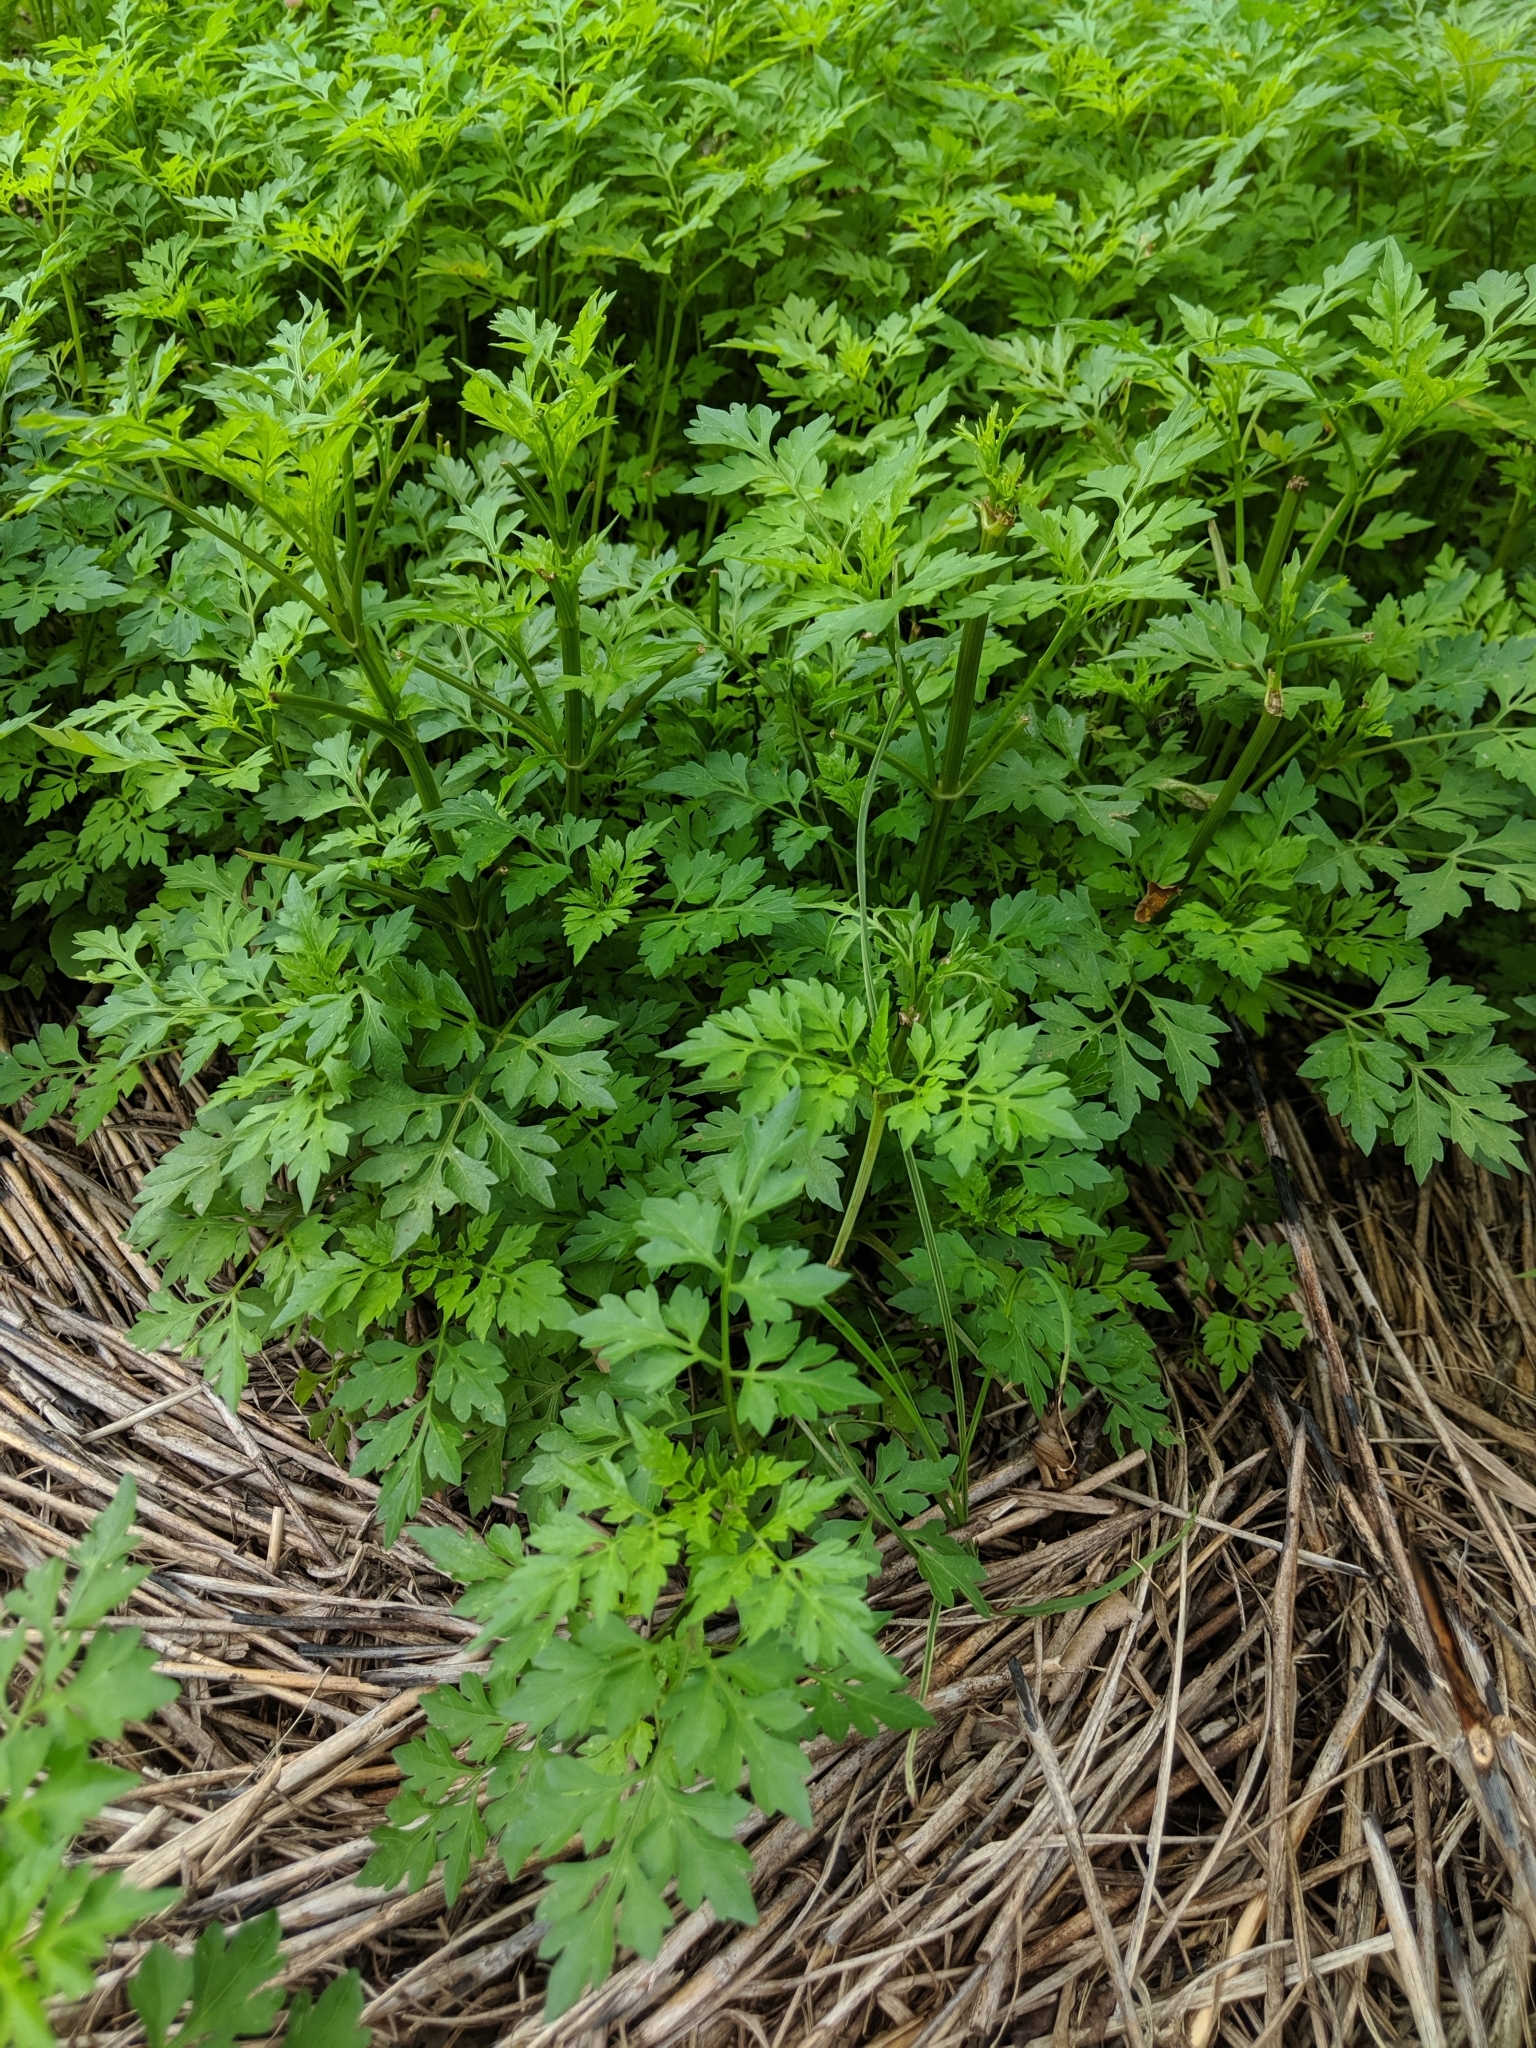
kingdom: Plantae
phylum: Tracheophyta
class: Magnoliopsida
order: Asterales
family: Asteraceae
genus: Bidens
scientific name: Bidens bipinnata
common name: Spanish-needles
